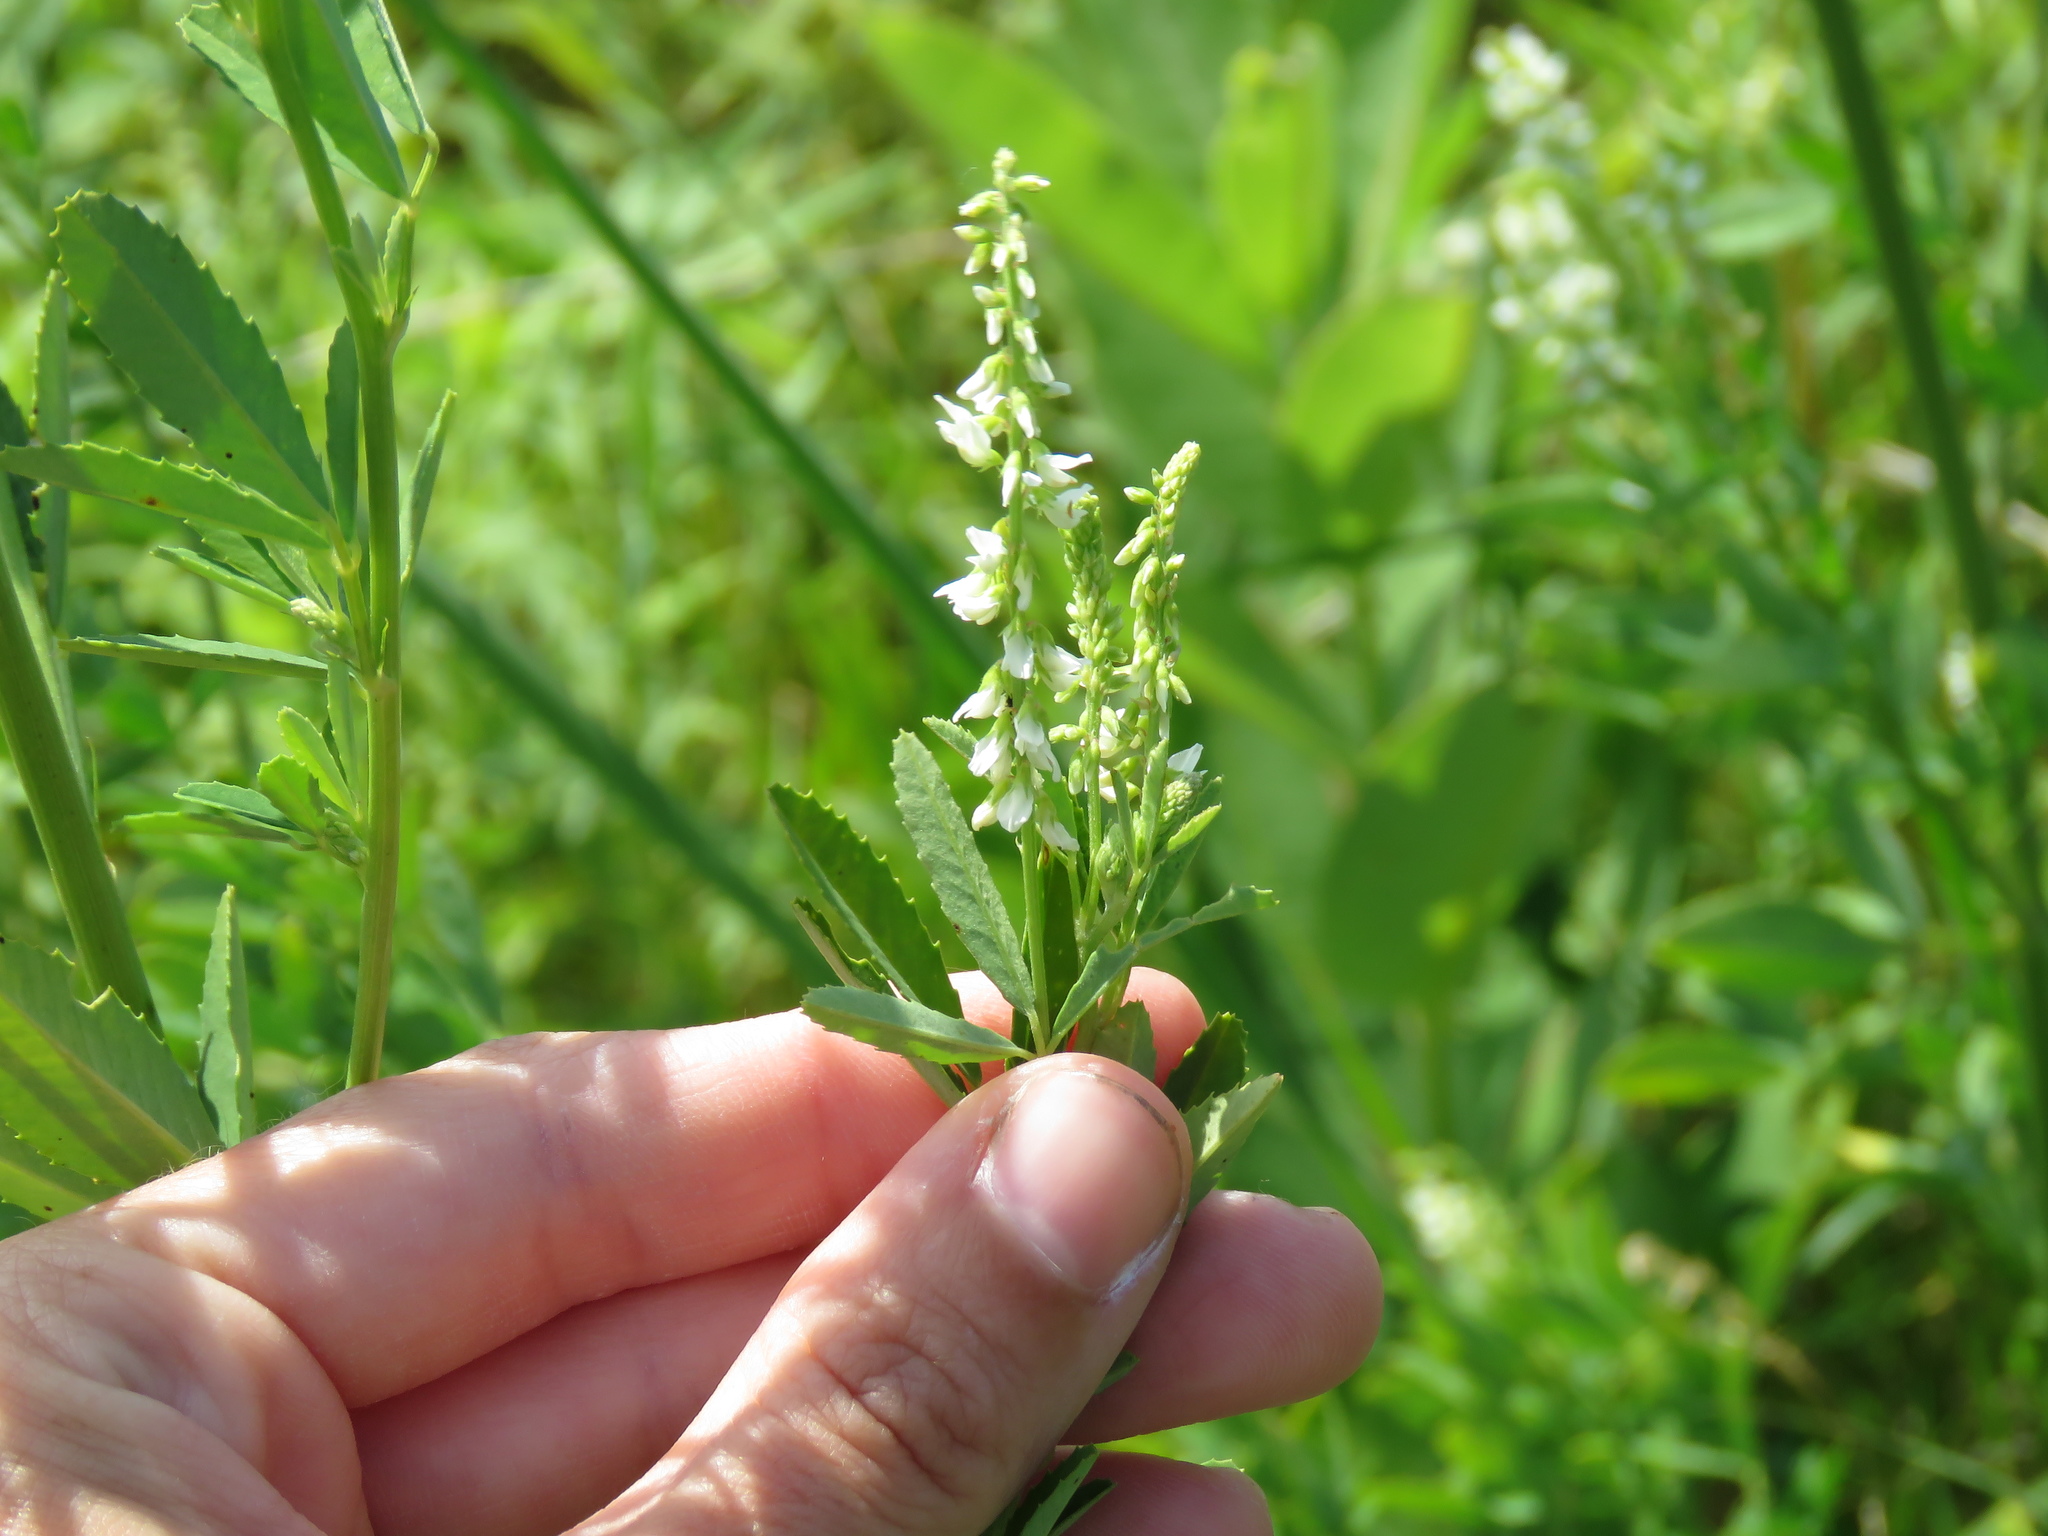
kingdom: Plantae
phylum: Tracheophyta
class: Magnoliopsida
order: Fabales
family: Fabaceae
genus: Melilotus
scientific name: Melilotus albus
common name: White melilot
